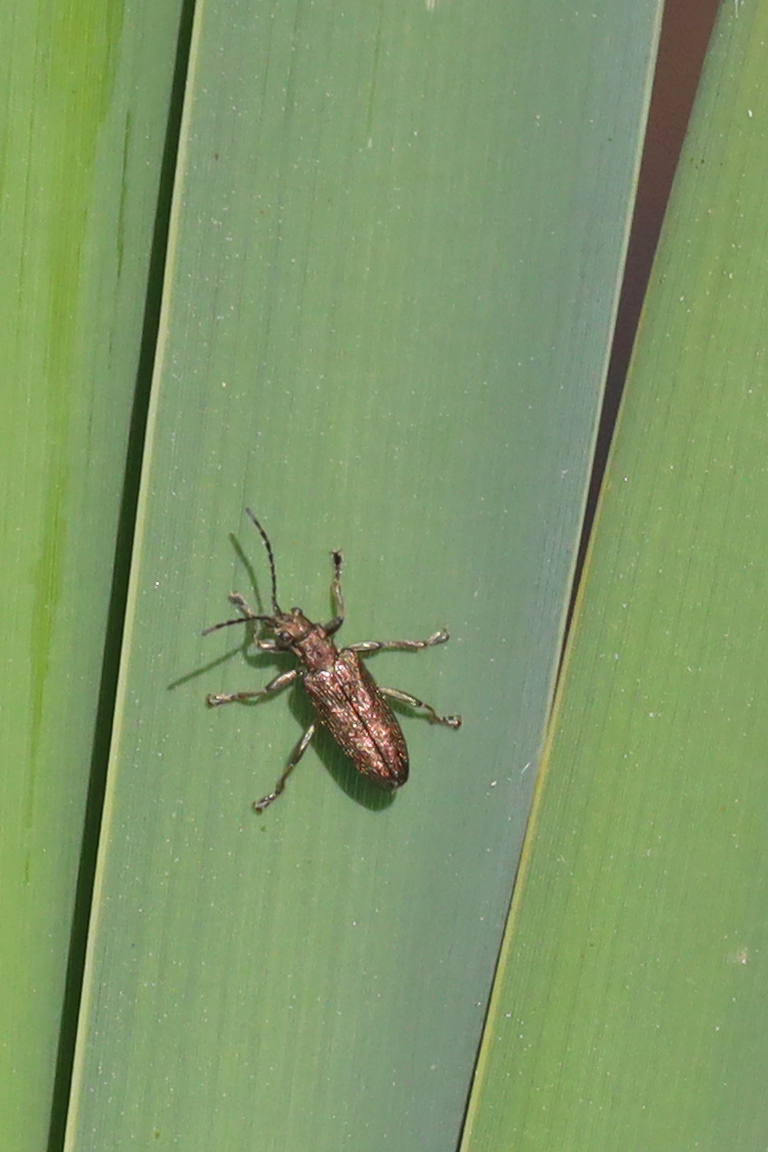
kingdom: Animalia
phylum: Arthropoda
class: Insecta
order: Coleoptera
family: Chrysomelidae
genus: Donacia
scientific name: Donacia semicuprea
